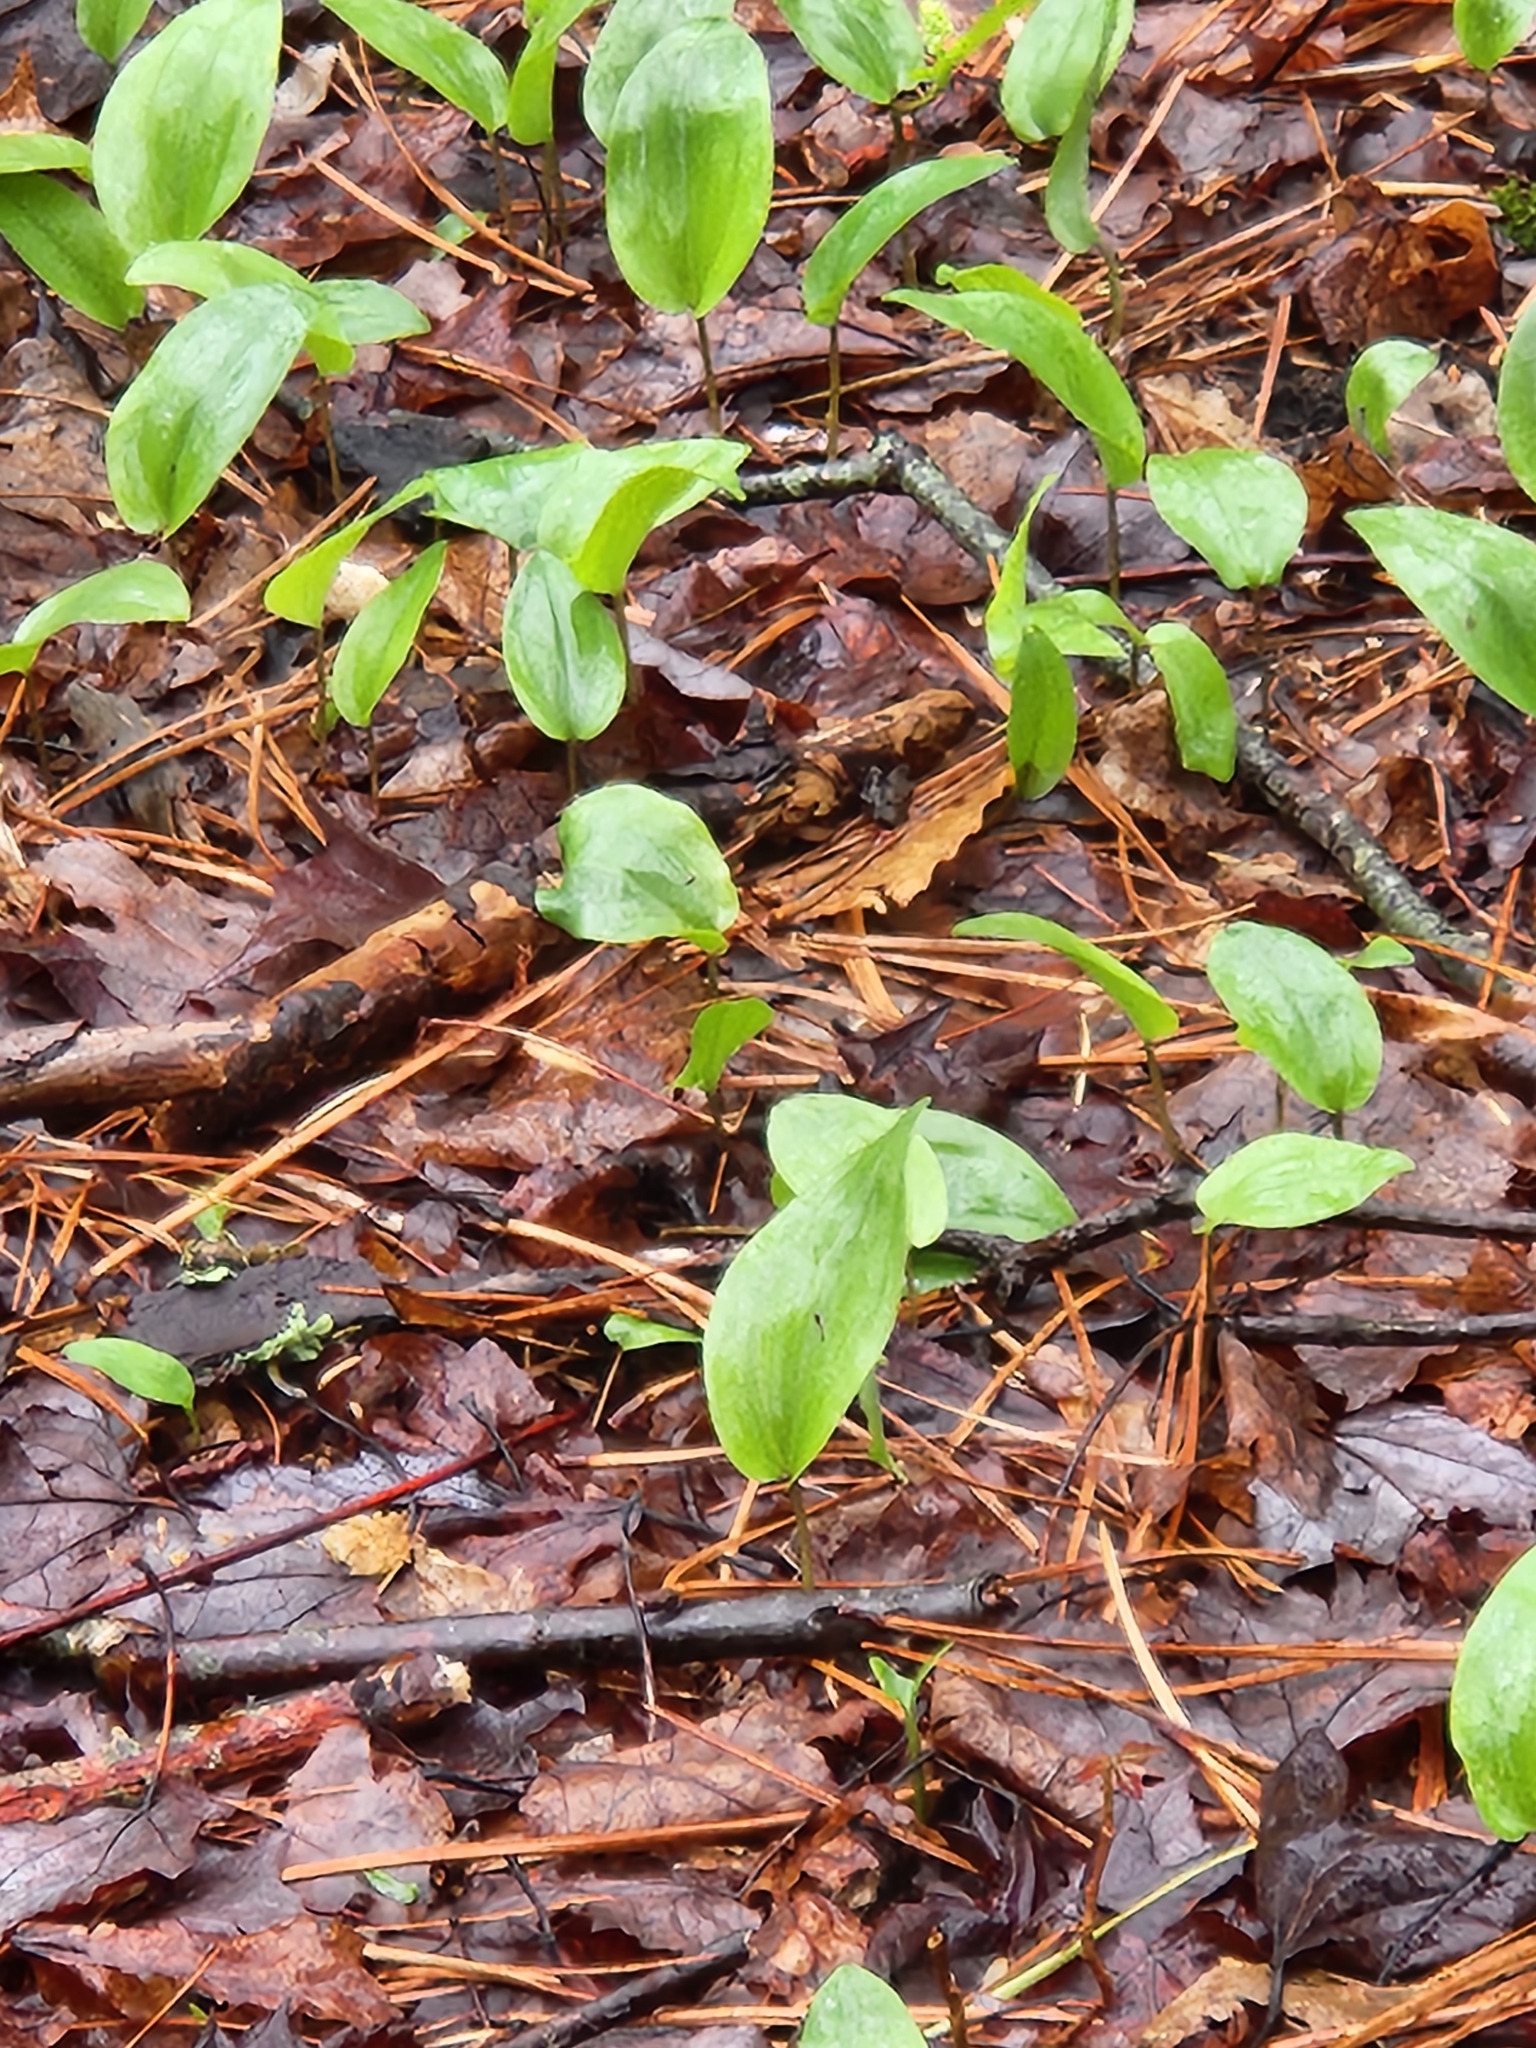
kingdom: Plantae
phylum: Tracheophyta
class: Liliopsida
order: Asparagales
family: Asparagaceae
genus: Maianthemum
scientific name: Maianthemum canadense
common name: False lily-of-the-valley
